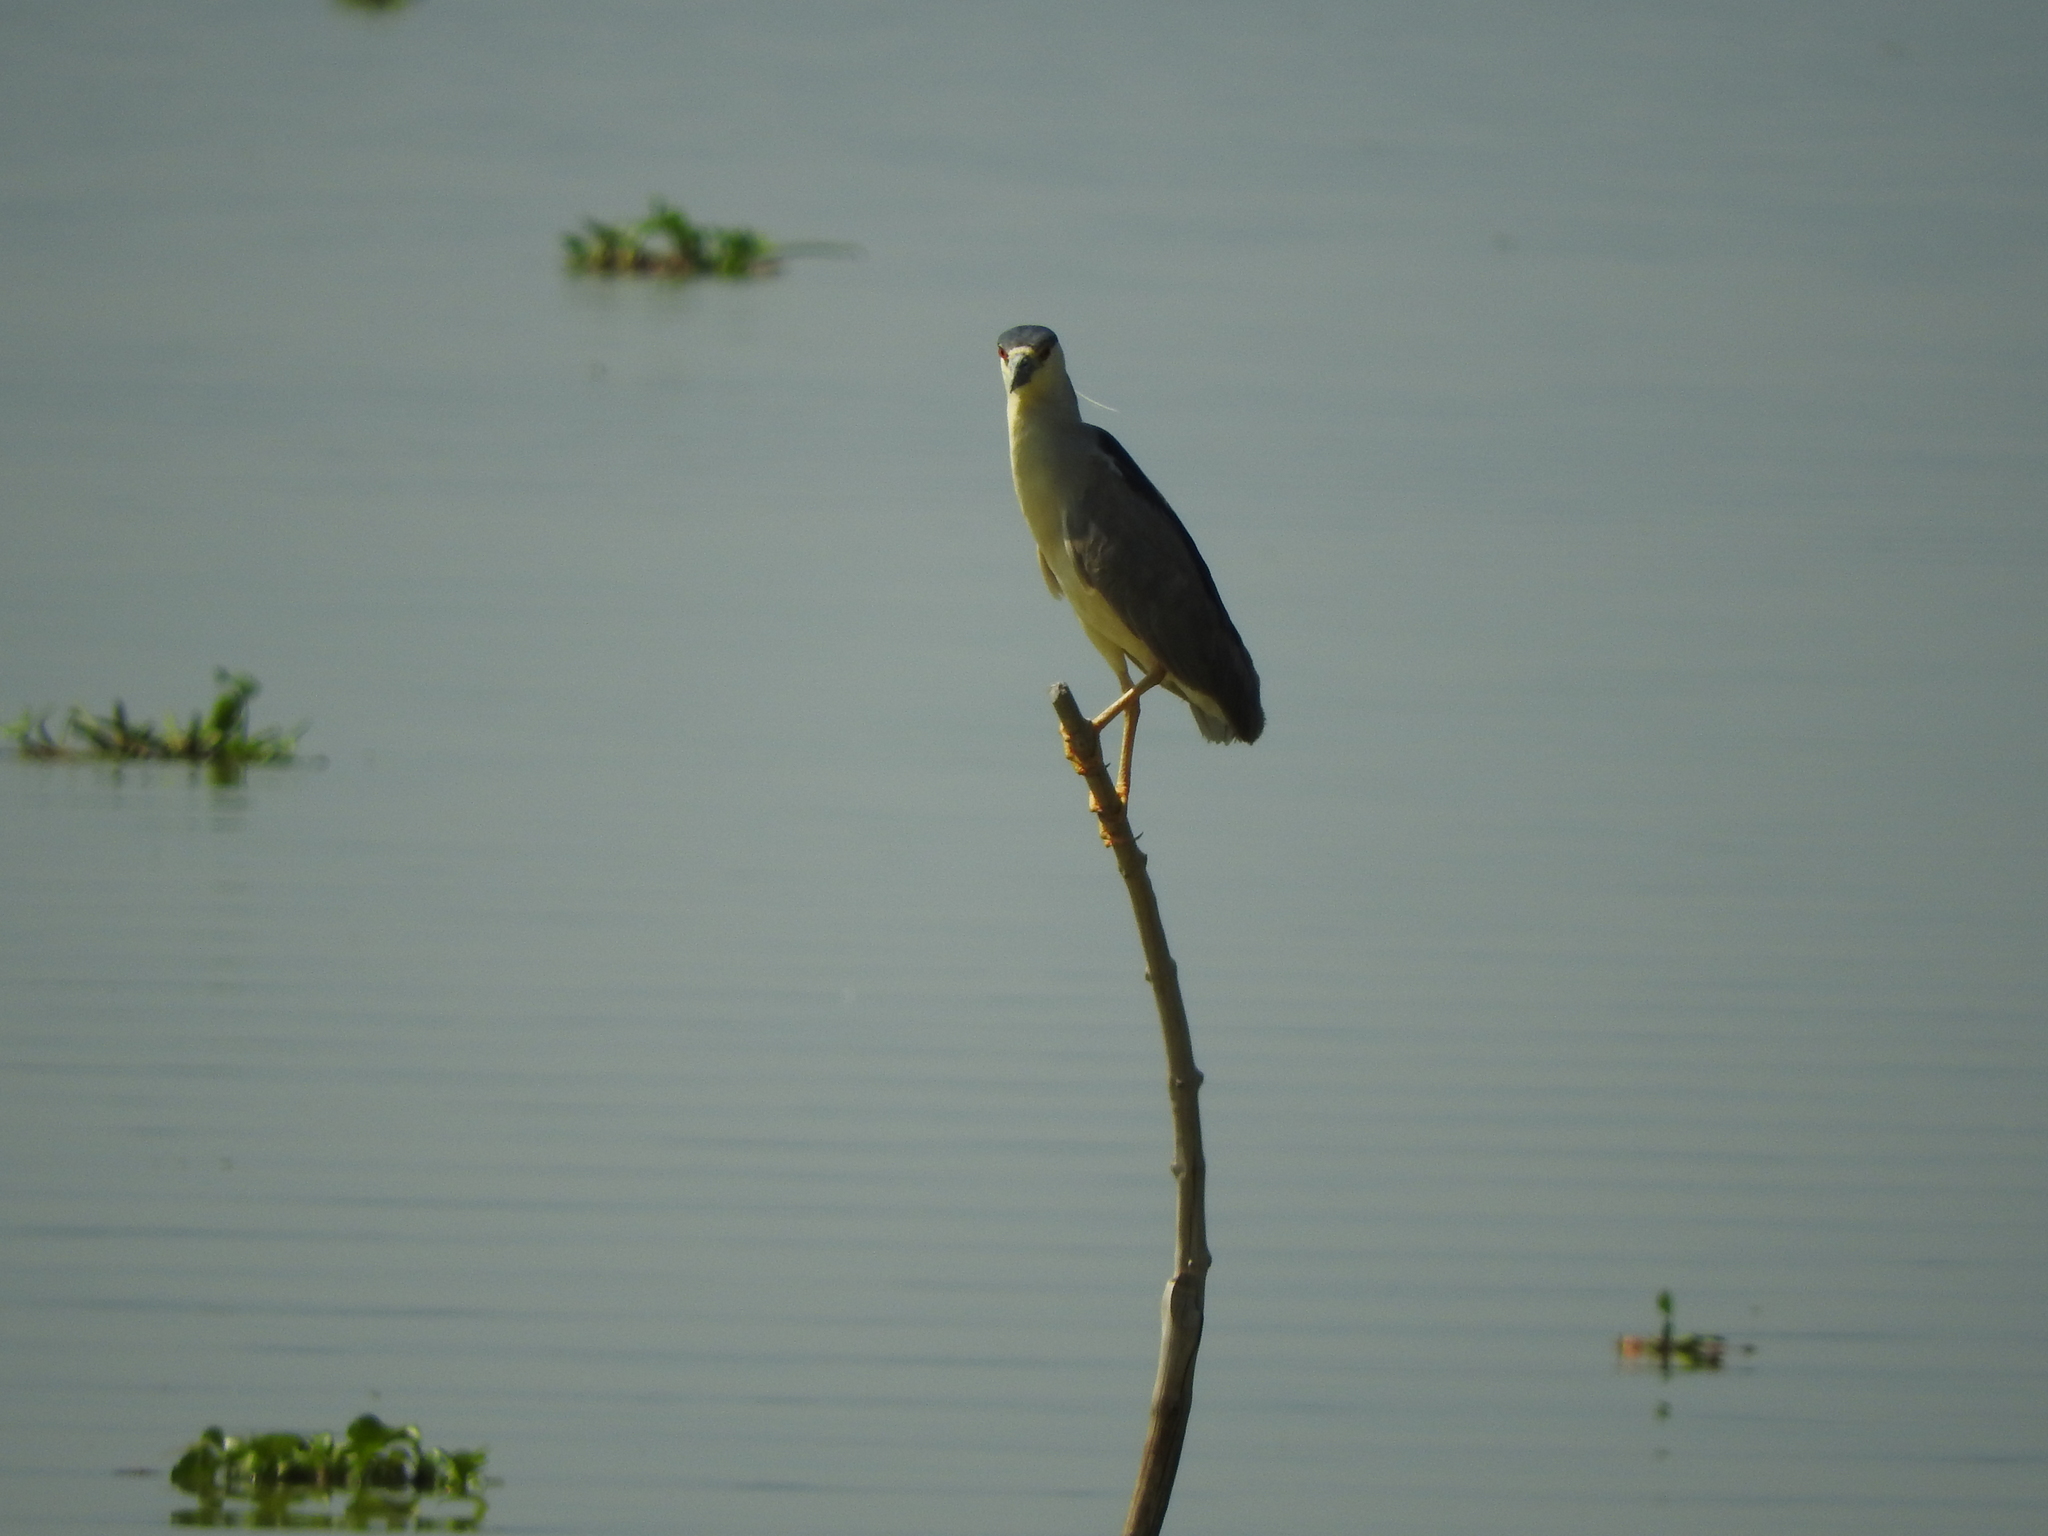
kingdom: Animalia
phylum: Chordata
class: Aves
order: Pelecaniformes
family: Ardeidae
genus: Nycticorax
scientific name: Nycticorax nycticorax
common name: Black-crowned night heron
